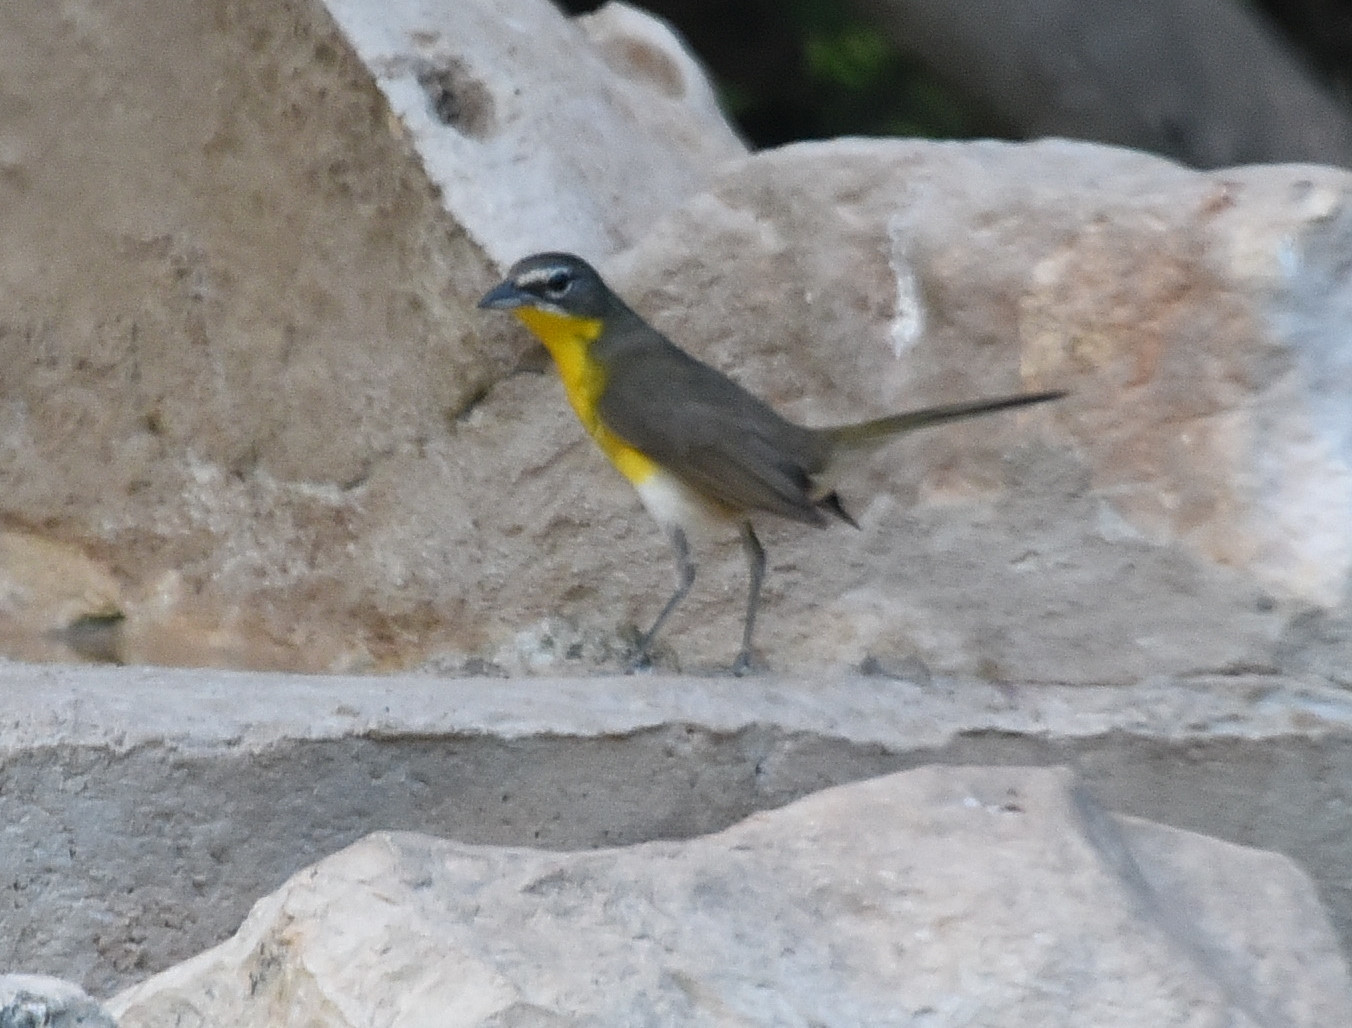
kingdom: Animalia
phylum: Chordata
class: Aves
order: Passeriformes
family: Parulidae
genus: Icteria
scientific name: Icteria virens
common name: Yellow-breasted chat
